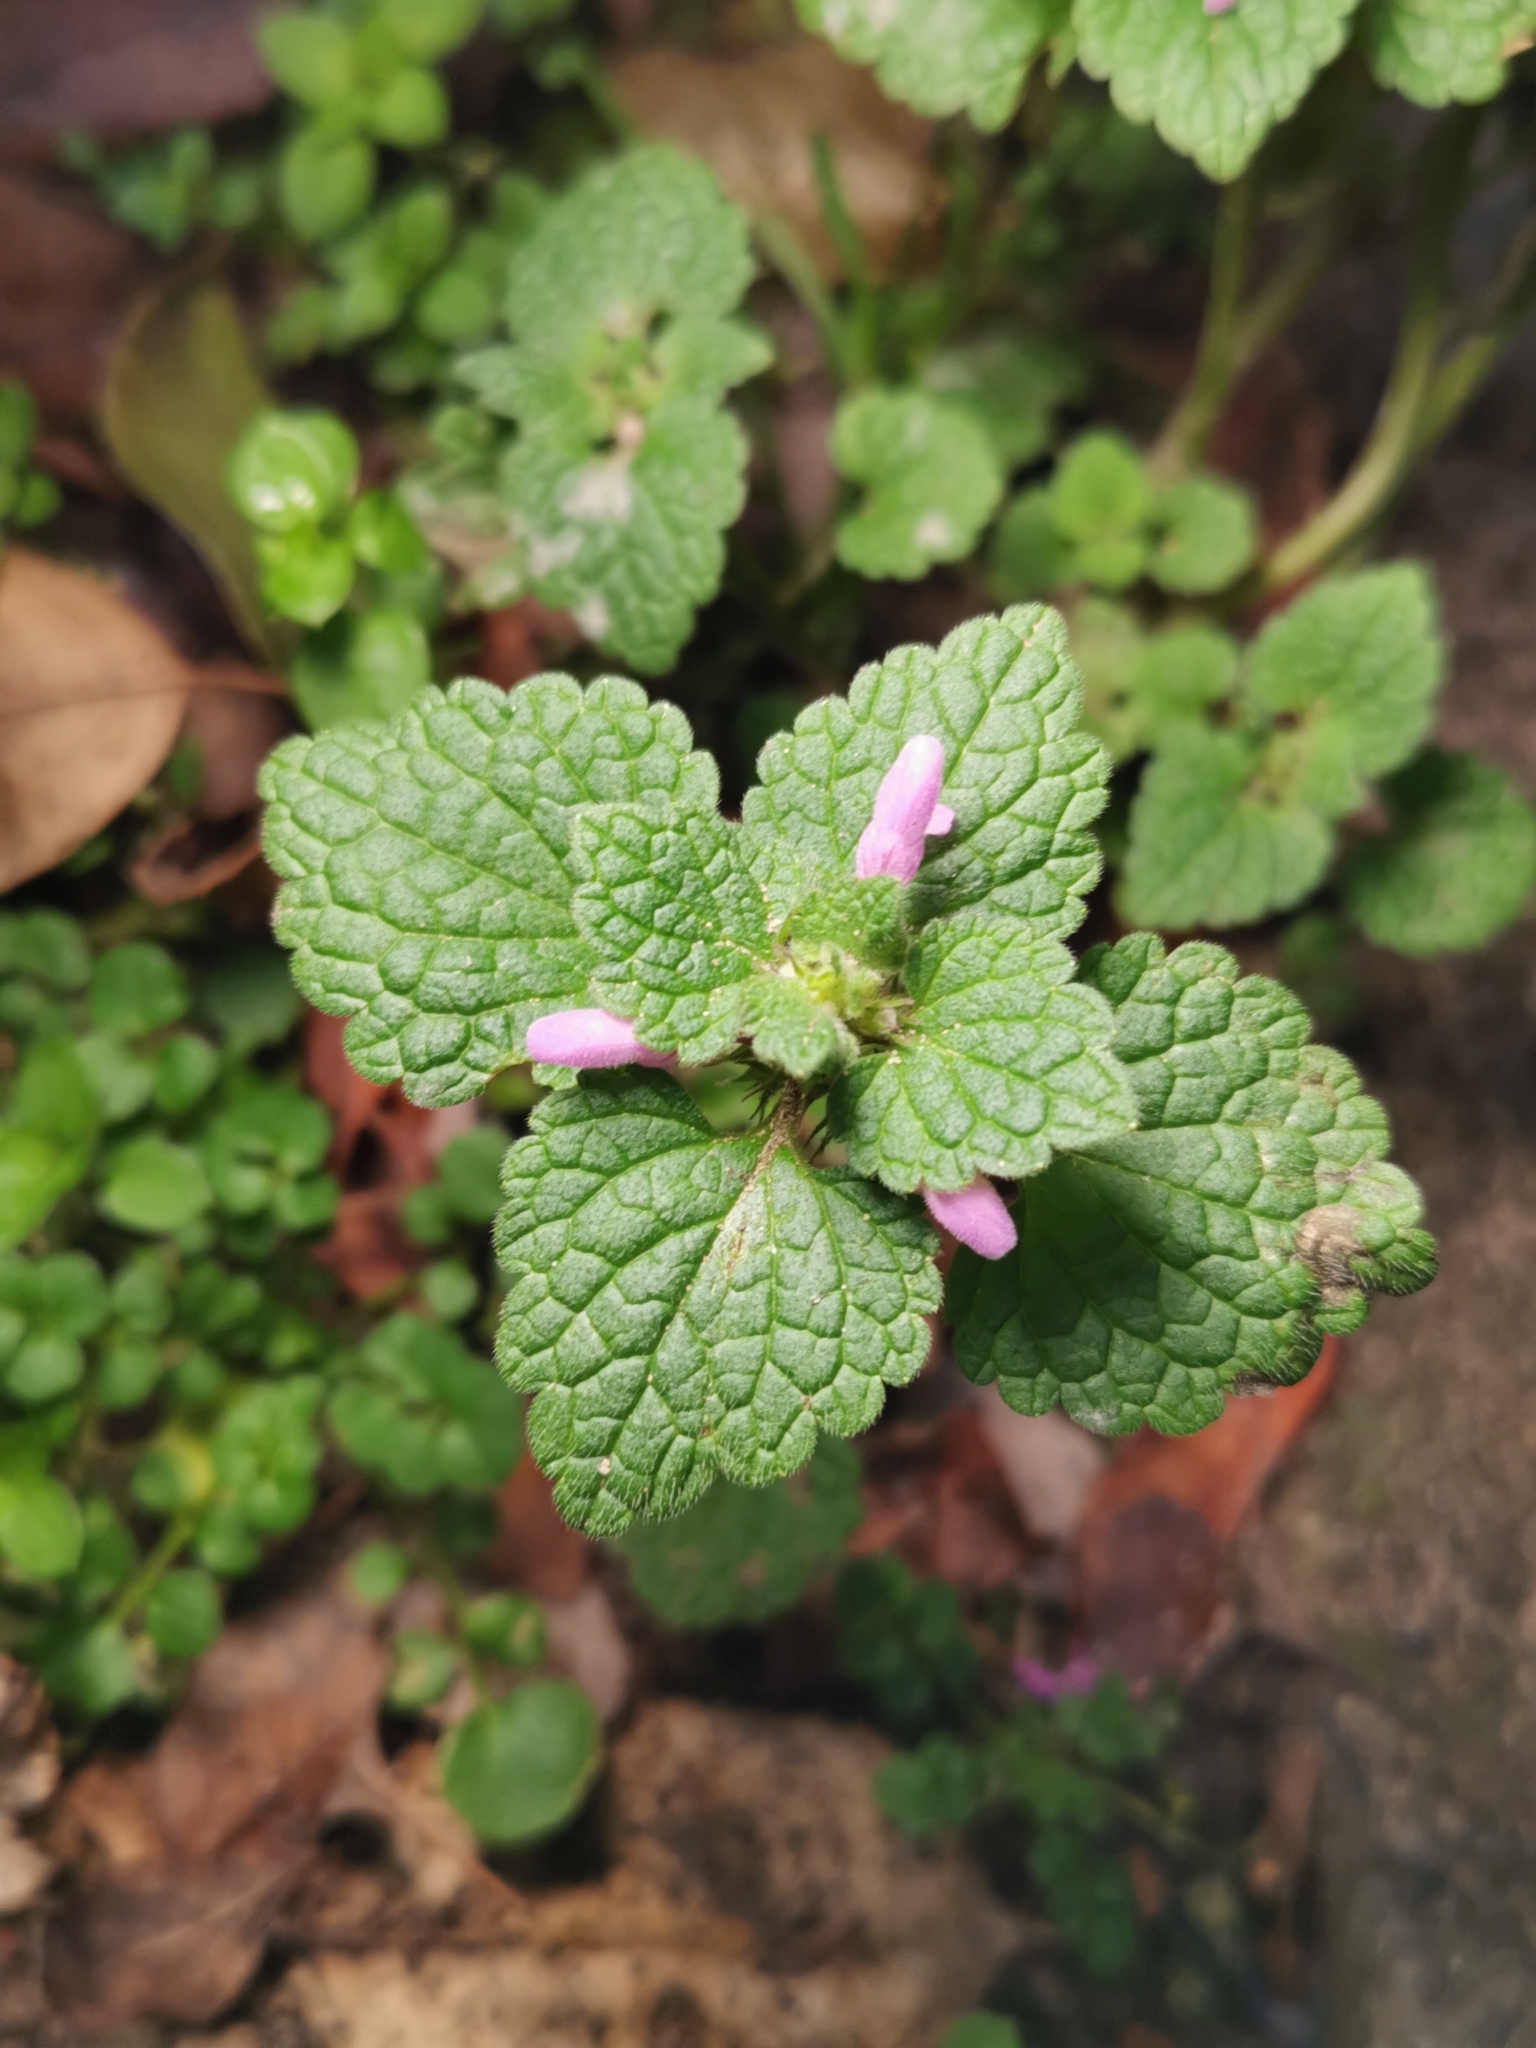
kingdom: Plantae
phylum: Tracheophyta
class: Magnoliopsida
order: Lamiales
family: Lamiaceae
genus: Lamium
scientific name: Lamium purpureum
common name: Red dead-nettle
